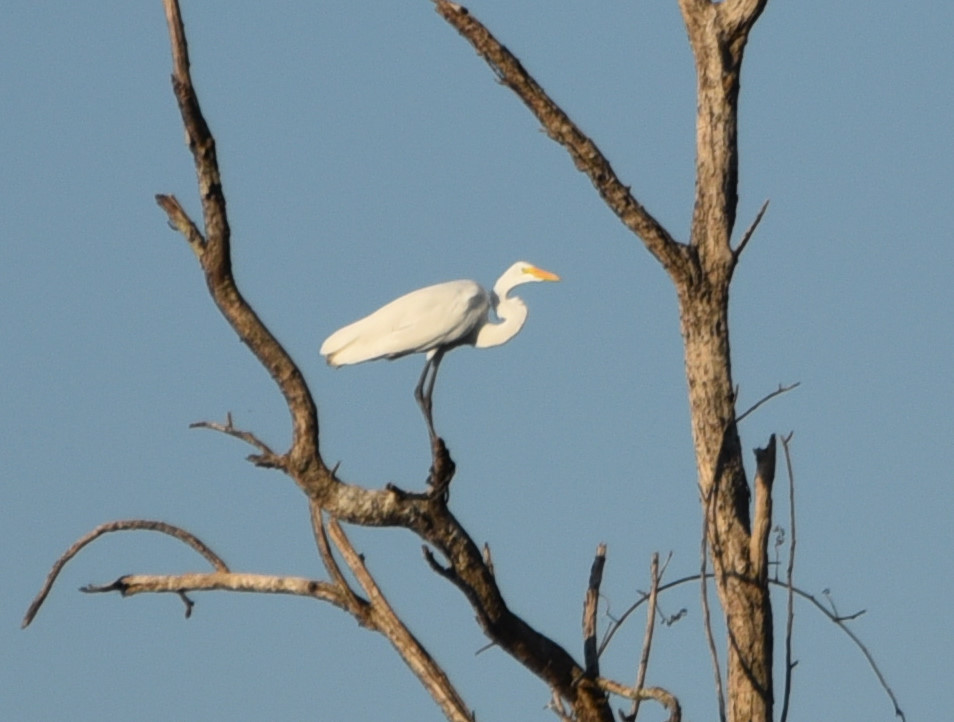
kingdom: Animalia
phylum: Chordata
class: Aves
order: Pelecaniformes
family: Ardeidae
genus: Ardea
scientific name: Ardea alba
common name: Great egret
